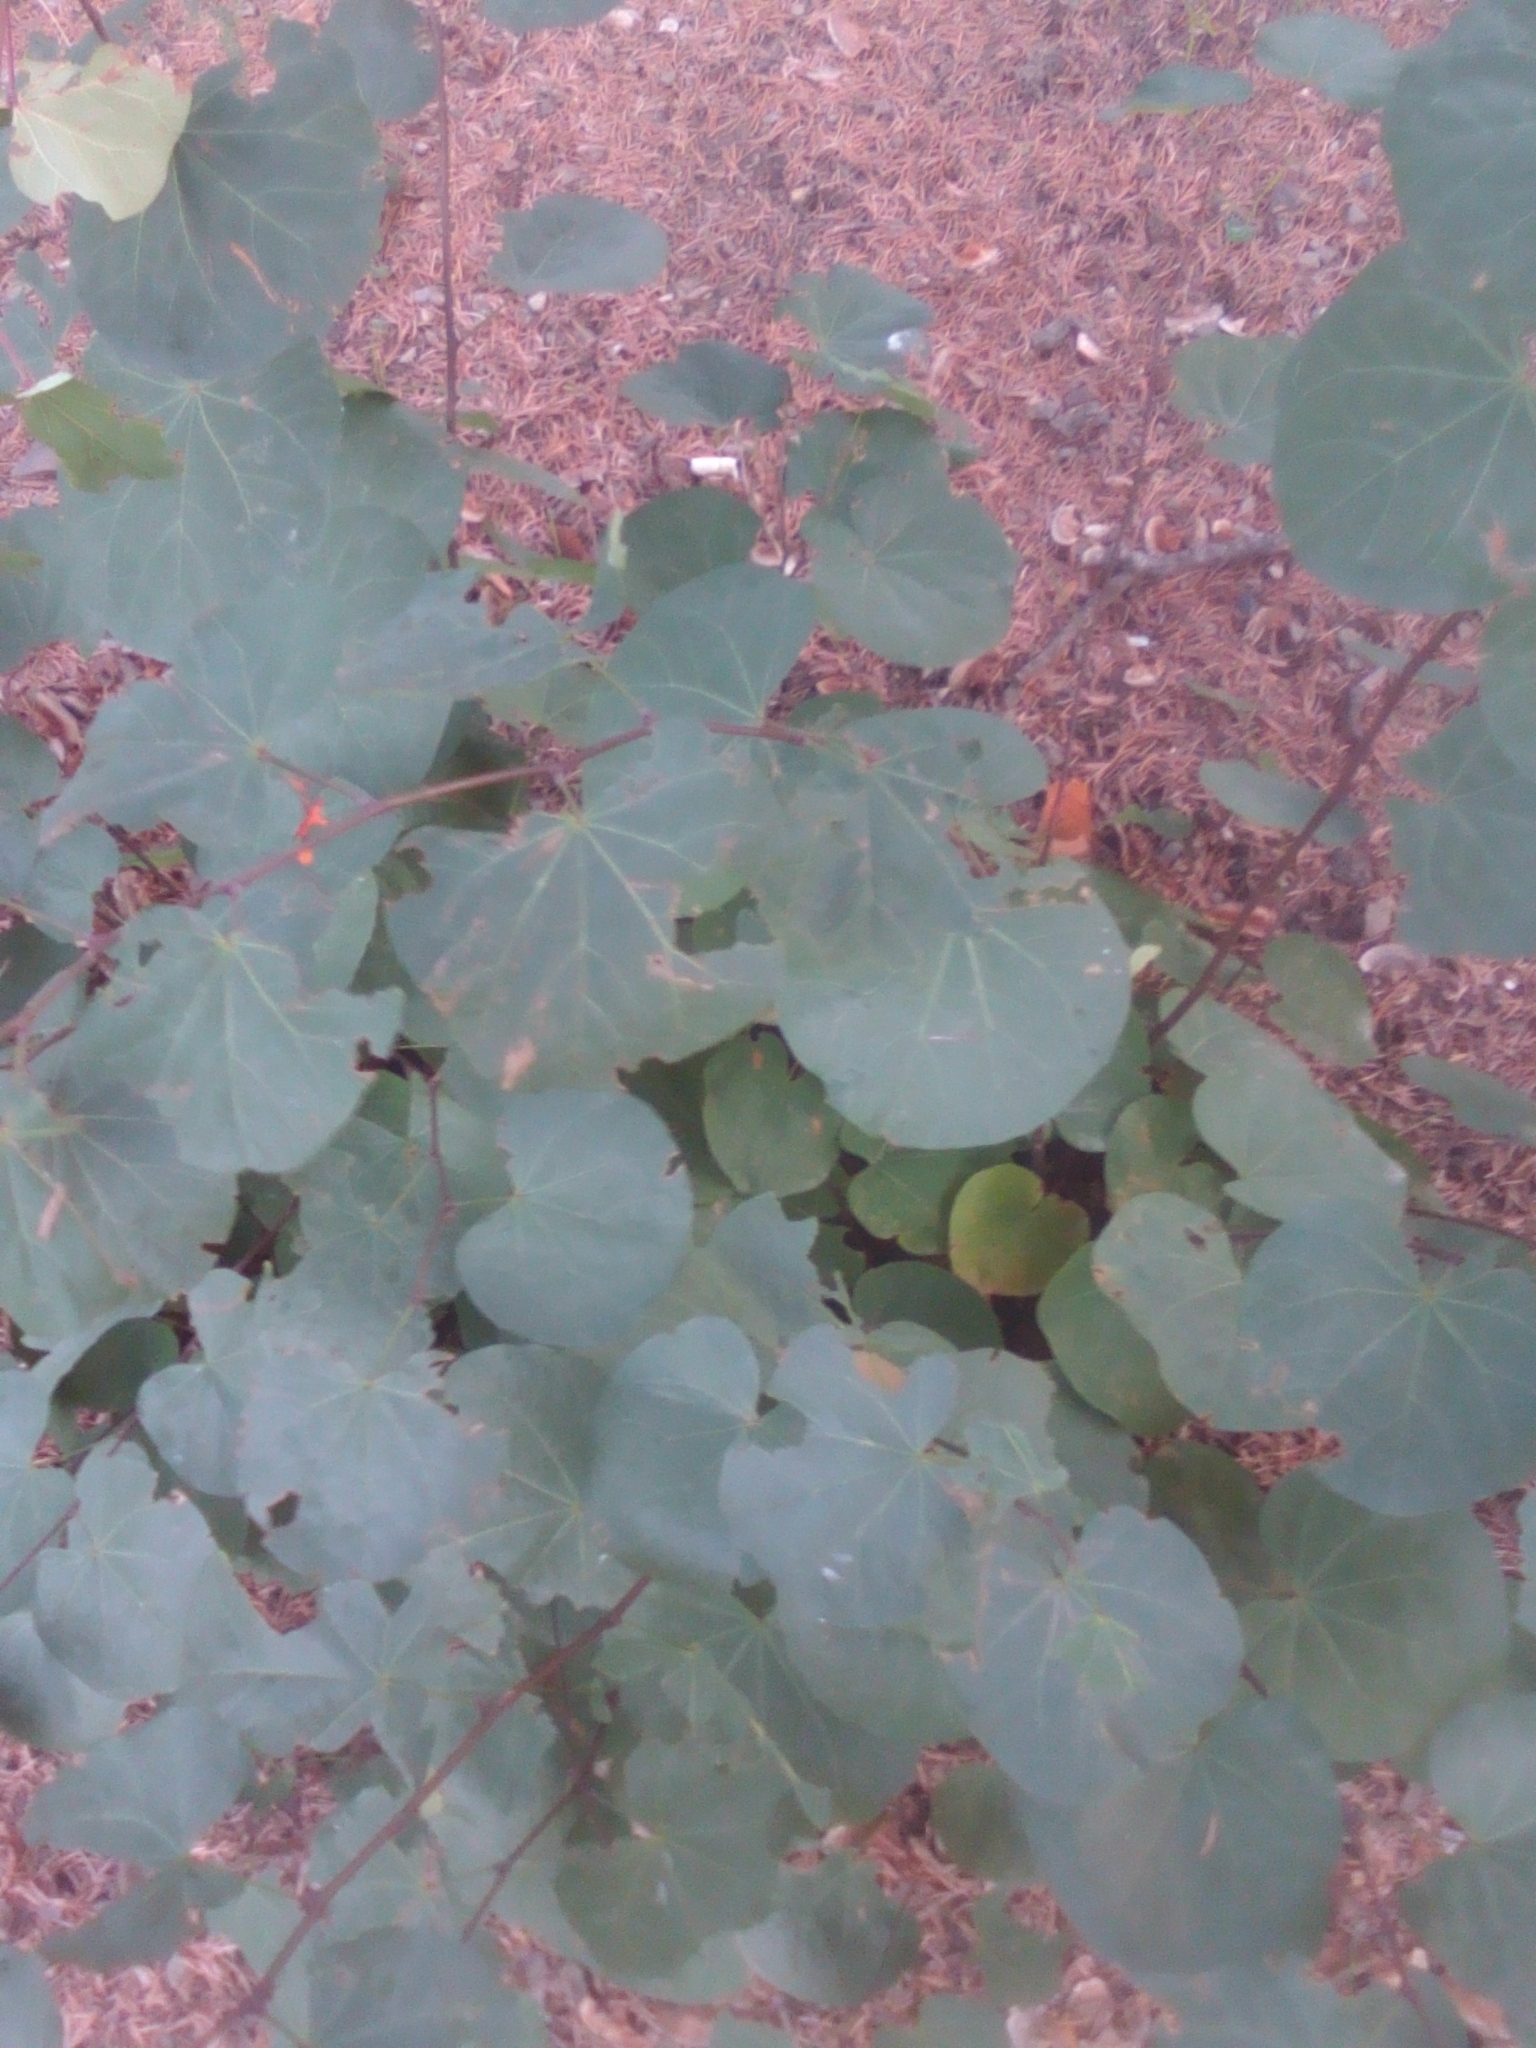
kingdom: Plantae
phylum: Tracheophyta
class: Magnoliopsida
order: Fabales
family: Fabaceae
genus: Cercis
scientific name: Cercis siliquastrum
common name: Judas tree
